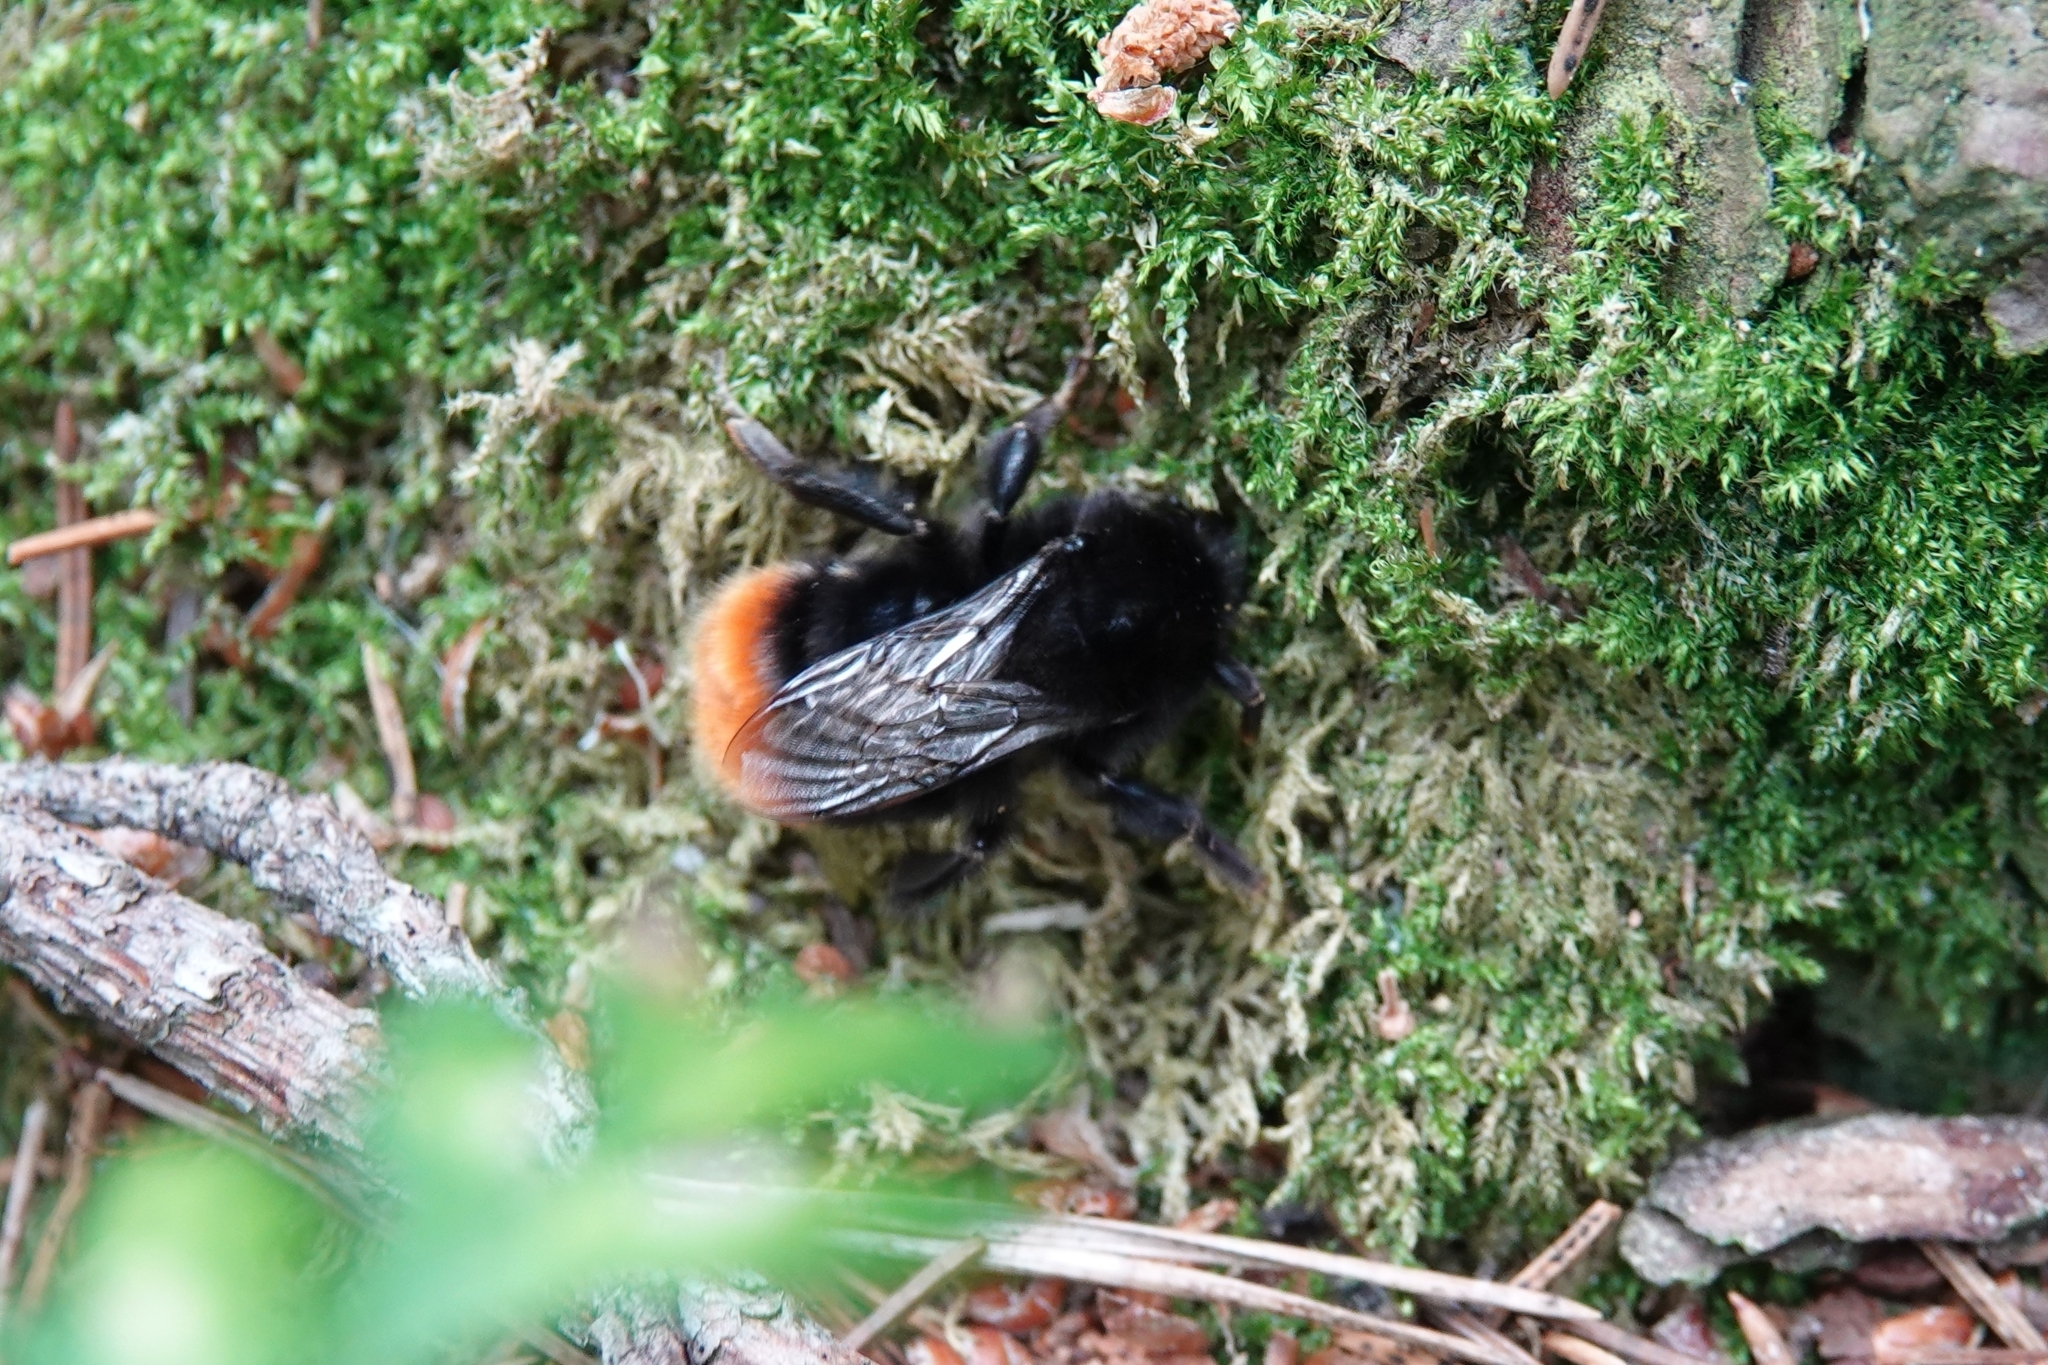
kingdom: Animalia
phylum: Arthropoda
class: Insecta
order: Hymenoptera
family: Apidae
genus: Bombus
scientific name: Bombus lapidarius
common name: Large red-tailed humble-bee
